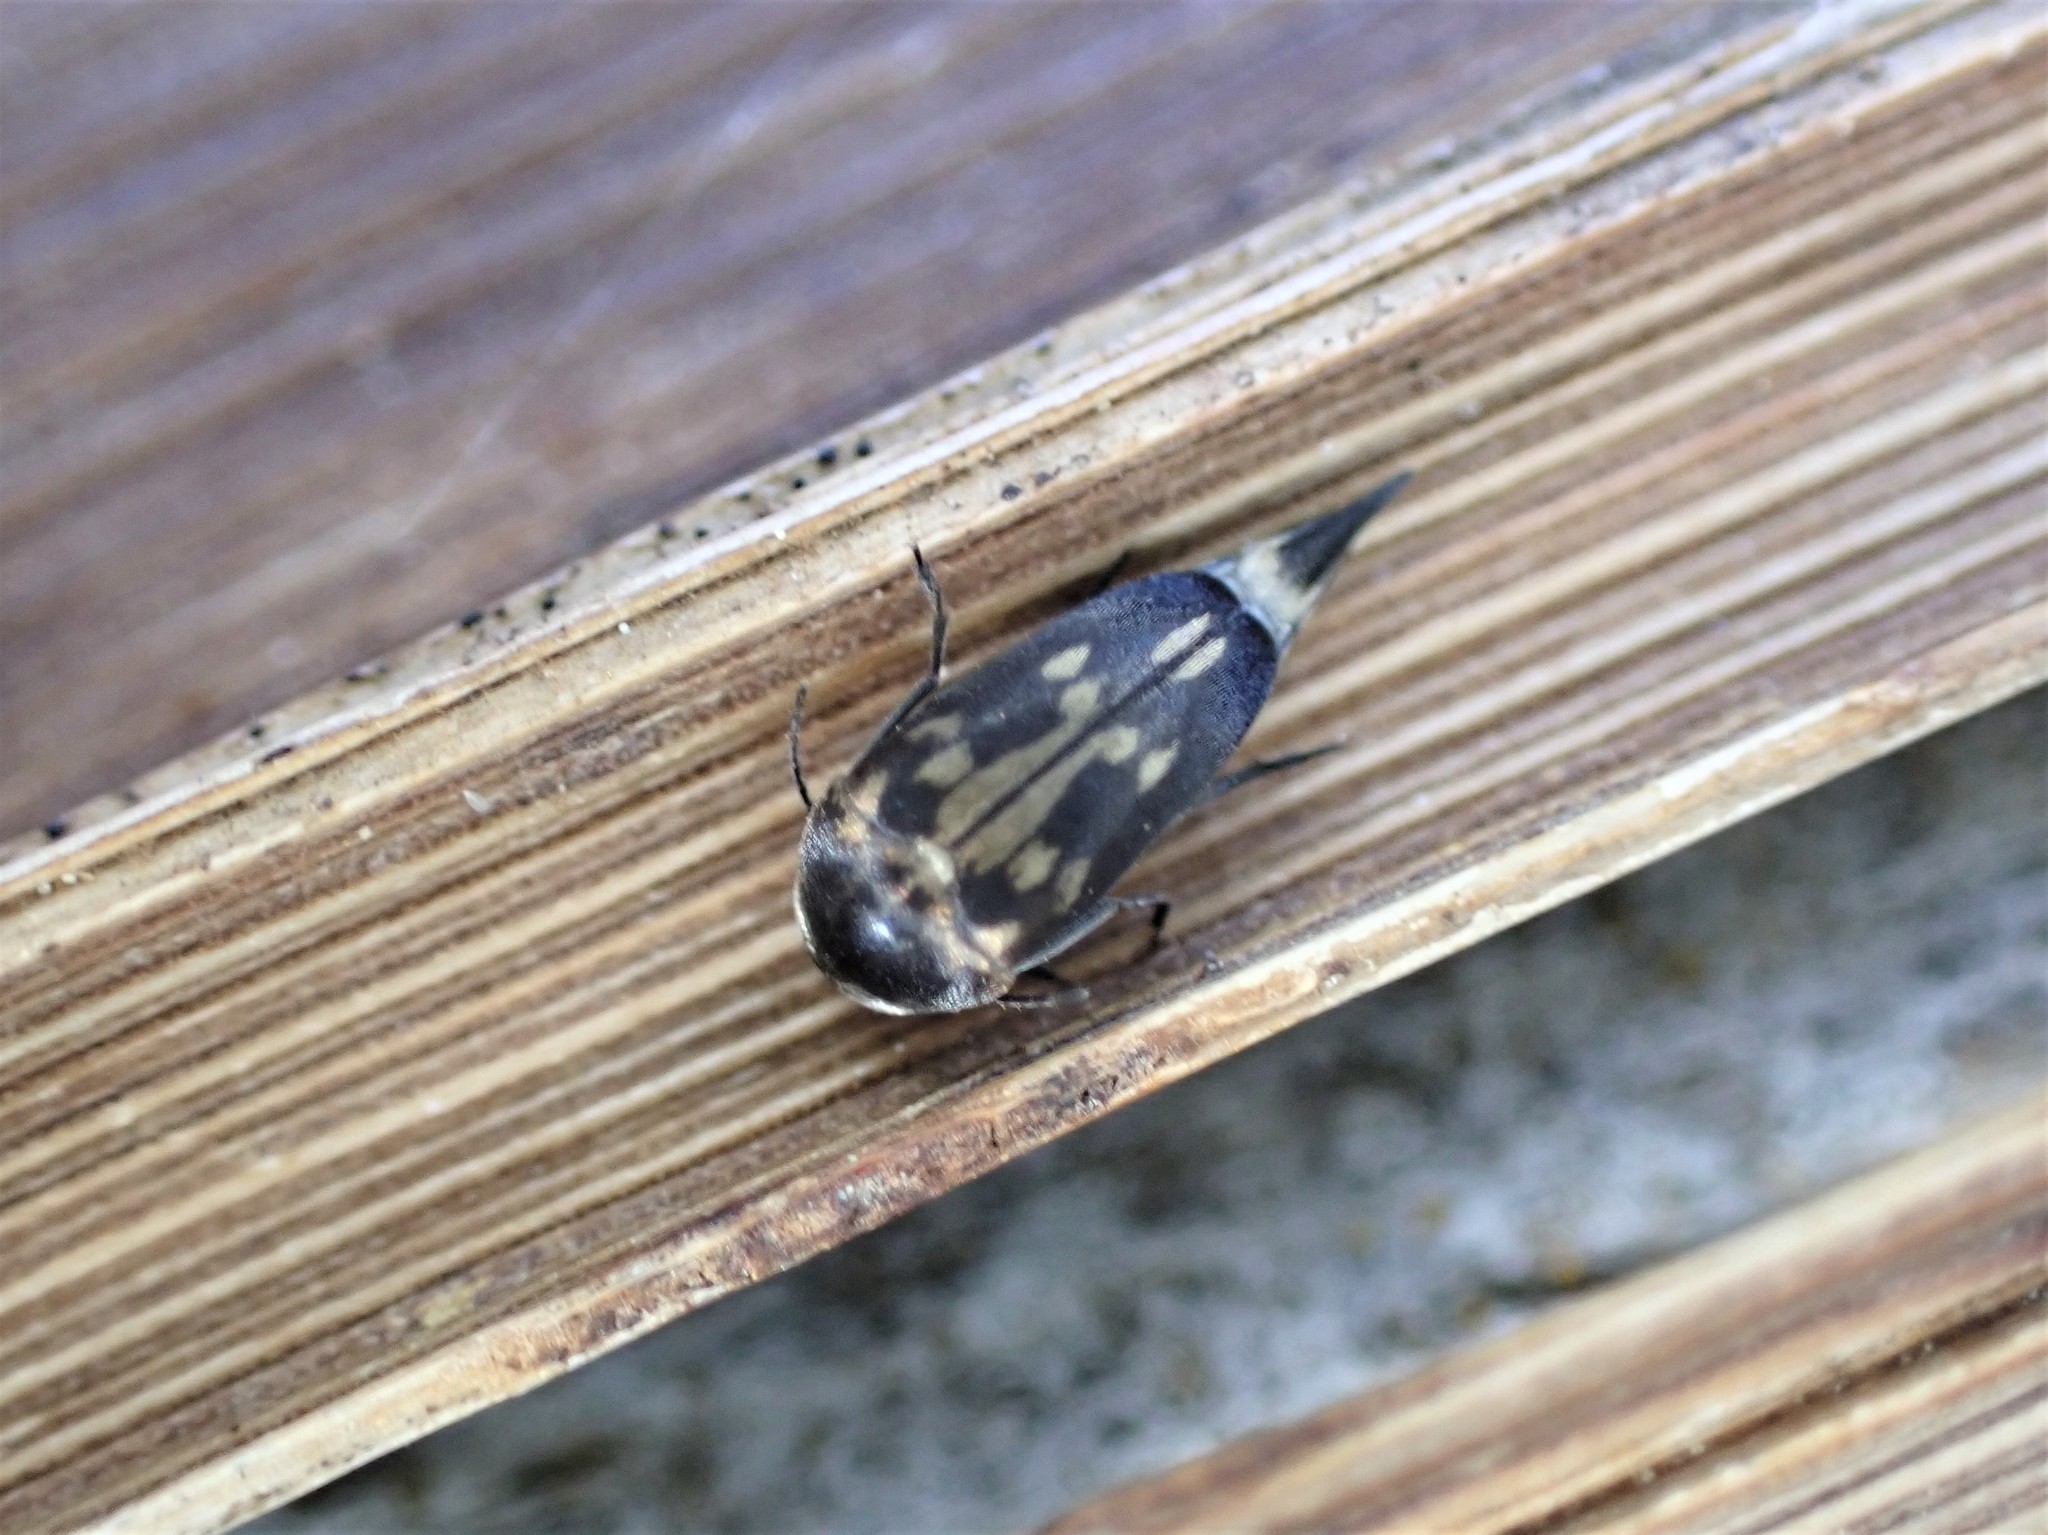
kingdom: Animalia
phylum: Arthropoda
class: Insecta
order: Coleoptera
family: Mordellidae
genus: Zeamordella
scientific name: Zeamordella monacha
